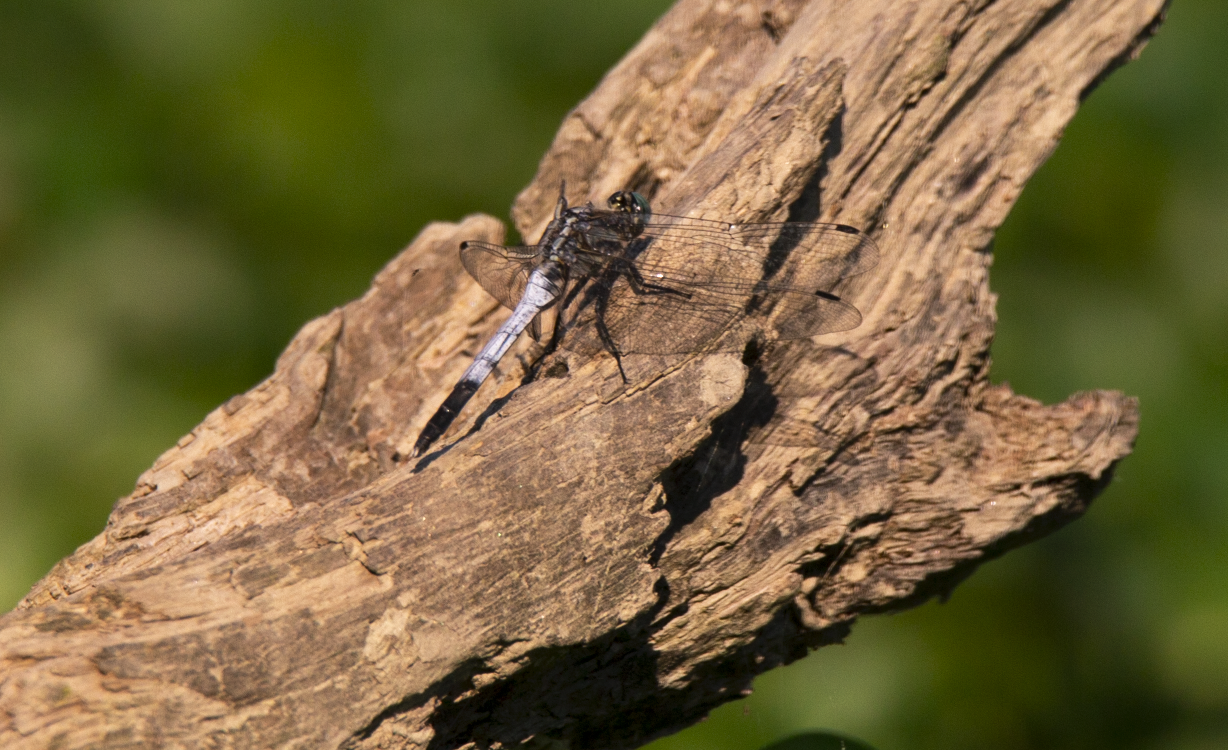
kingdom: Animalia
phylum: Arthropoda
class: Insecta
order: Odonata
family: Libellulidae
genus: Orthetrum
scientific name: Orthetrum albistylum
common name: White-tailed skimmer
